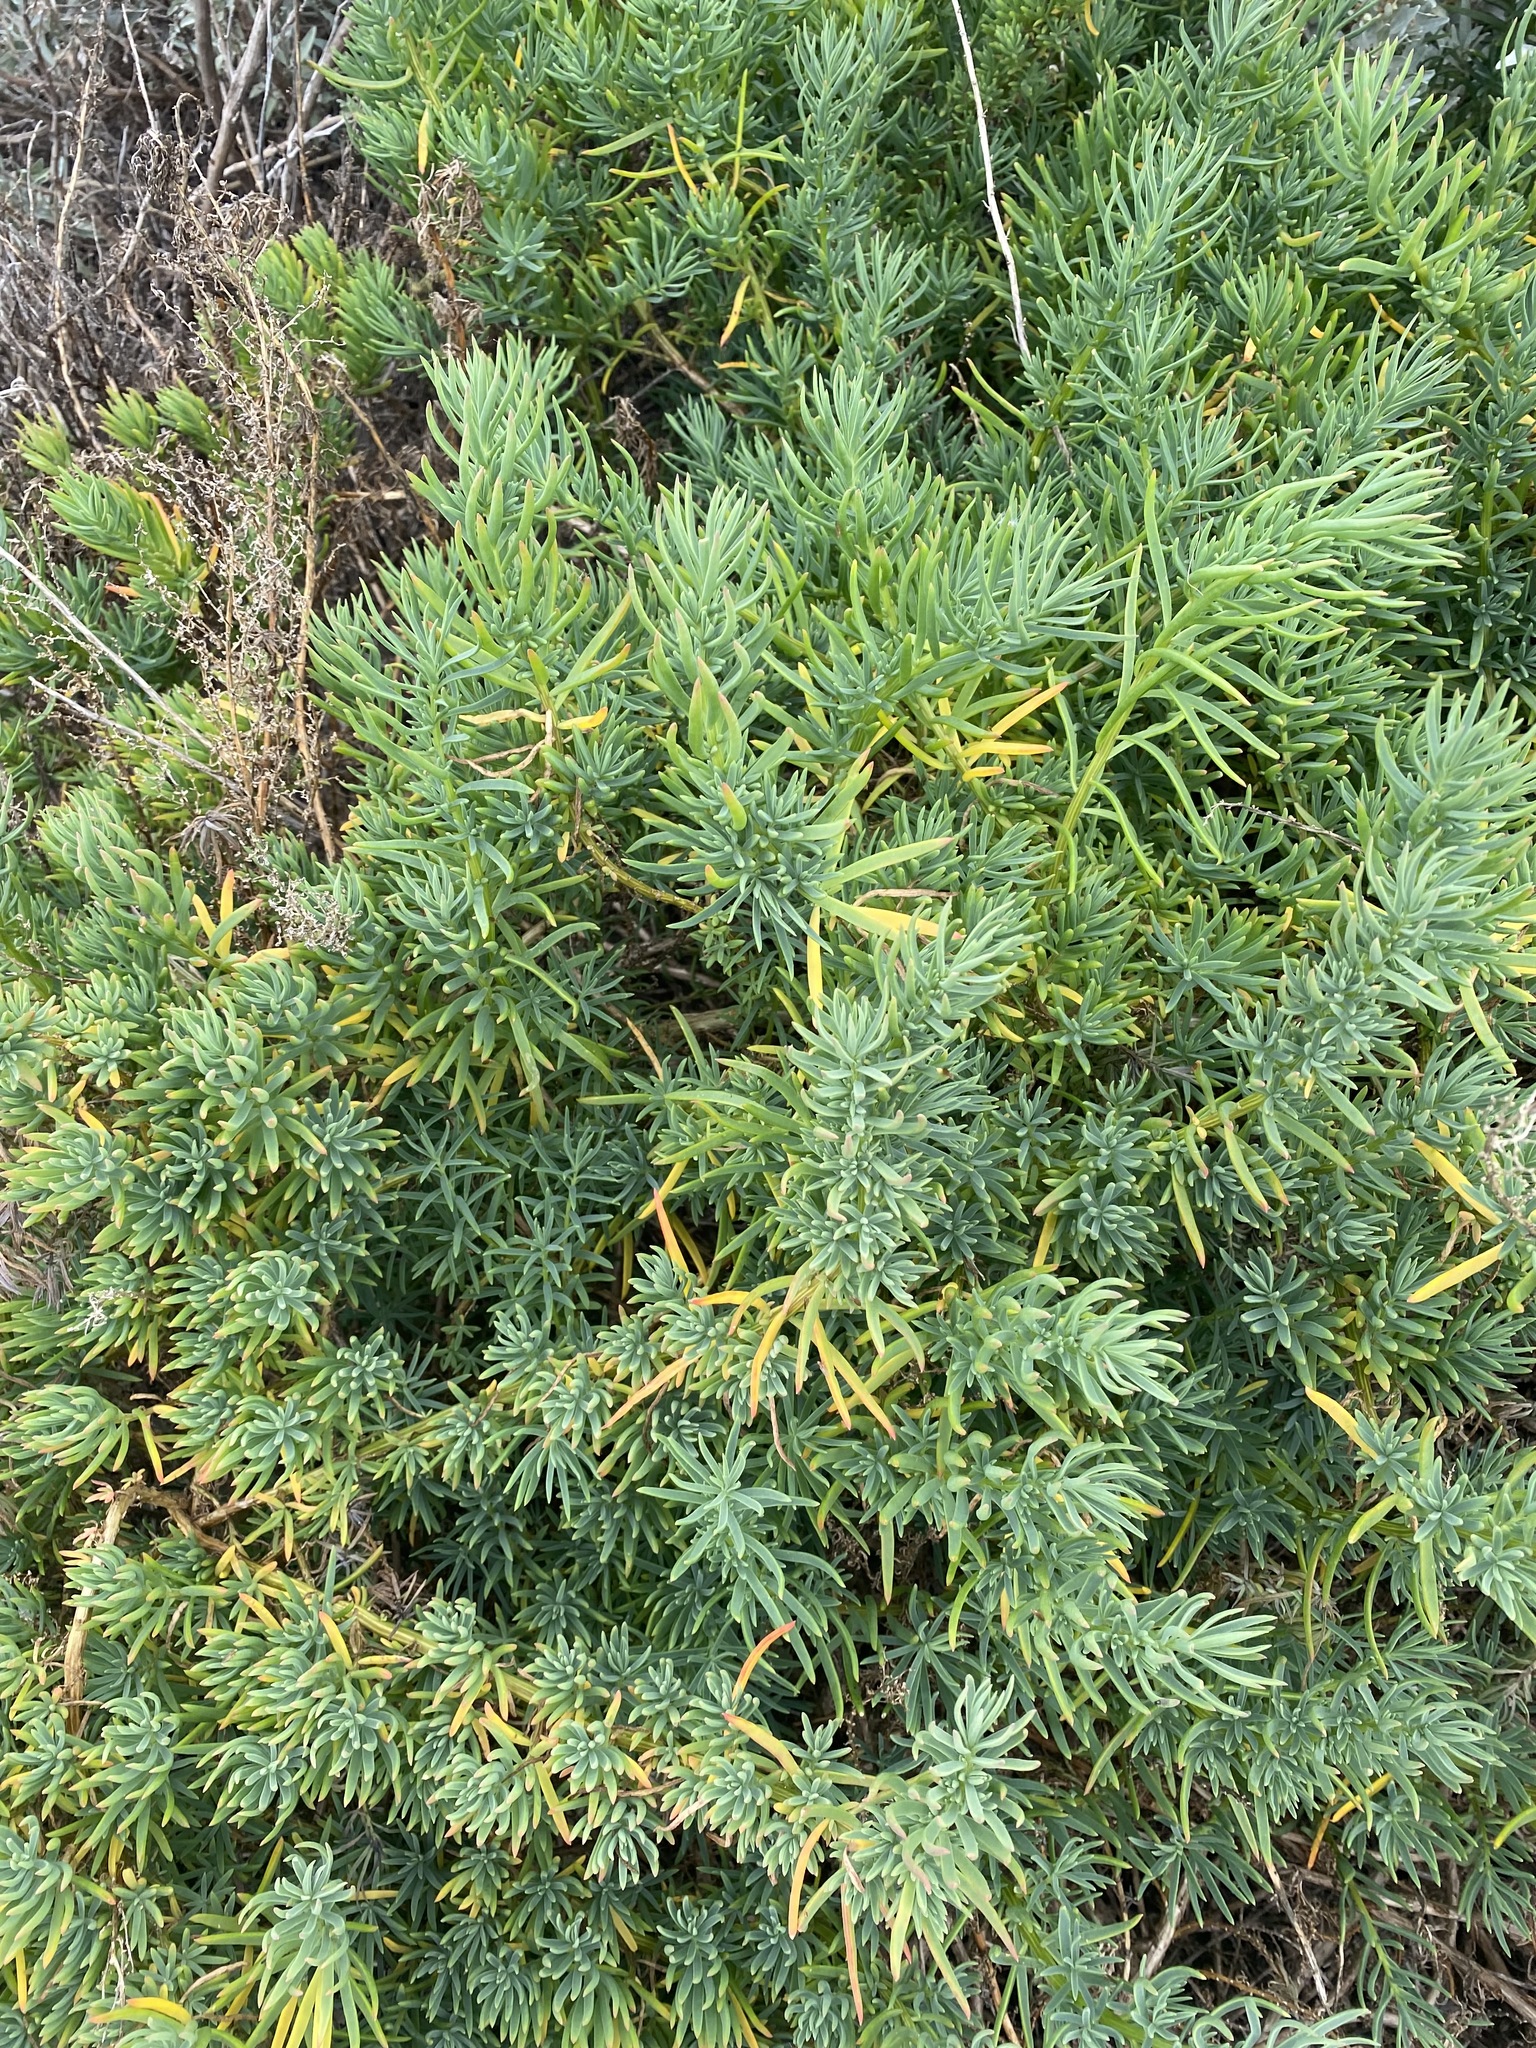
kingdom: Plantae
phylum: Tracheophyta
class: Magnoliopsida
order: Caryophyllales
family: Amaranthaceae
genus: Suaeda
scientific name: Suaeda australis
